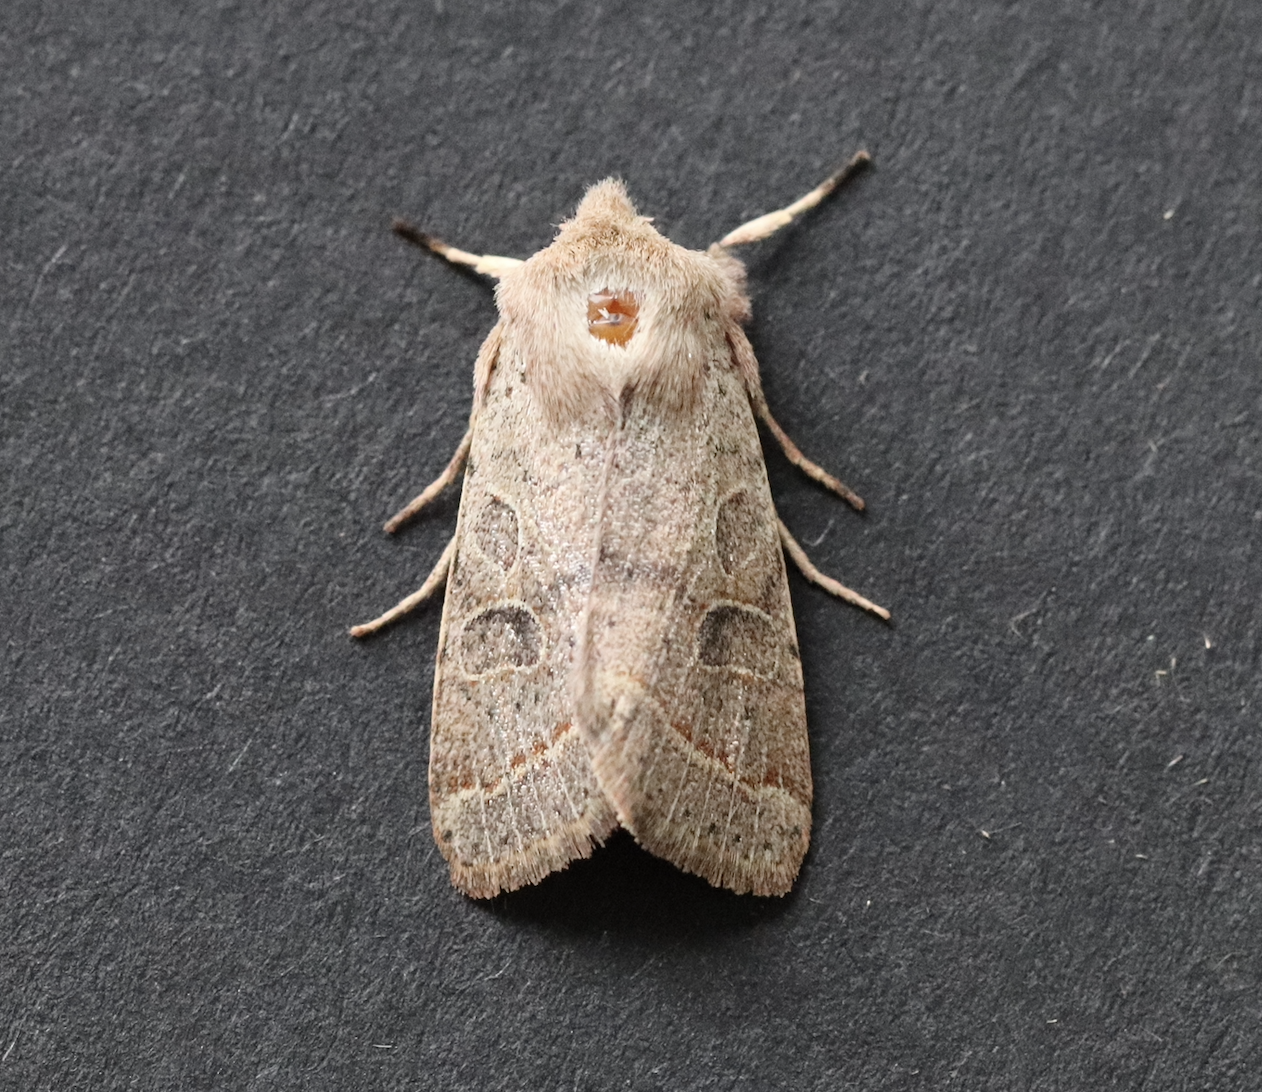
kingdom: Animalia
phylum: Arthropoda
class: Insecta
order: Lepidoptera
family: Noctuidae
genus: Orthosia
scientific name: Orthosia cerasi
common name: Common quaker
